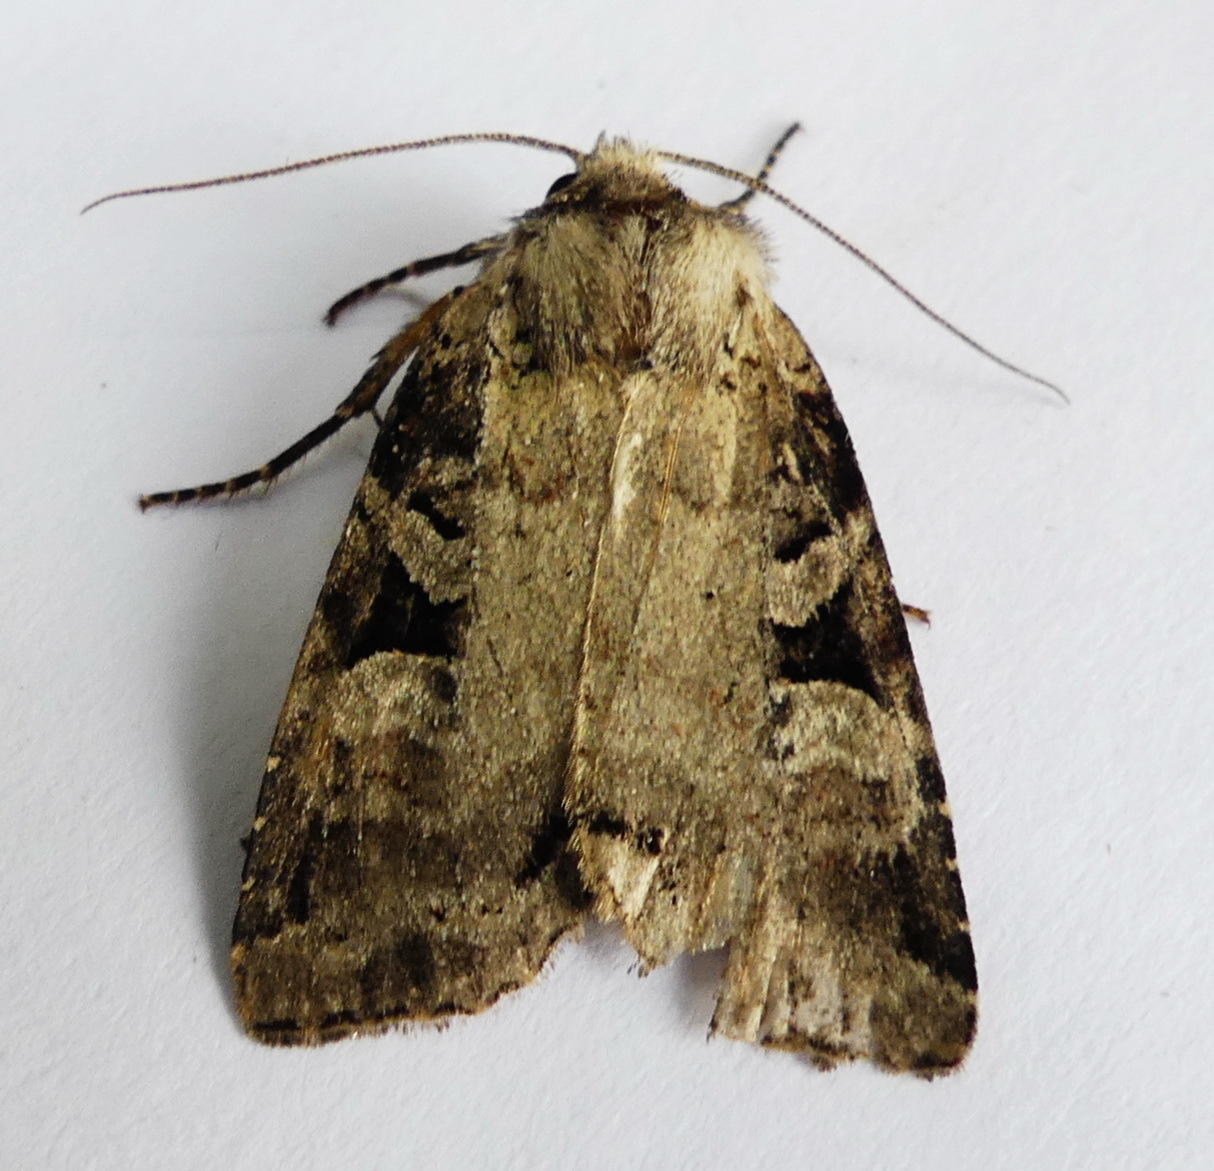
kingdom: Animalia
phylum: Arthropoda
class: Insecta
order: Lepidoptera
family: Noctuidae
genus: Hillia
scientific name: Hillia iris
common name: Iris rover moth
